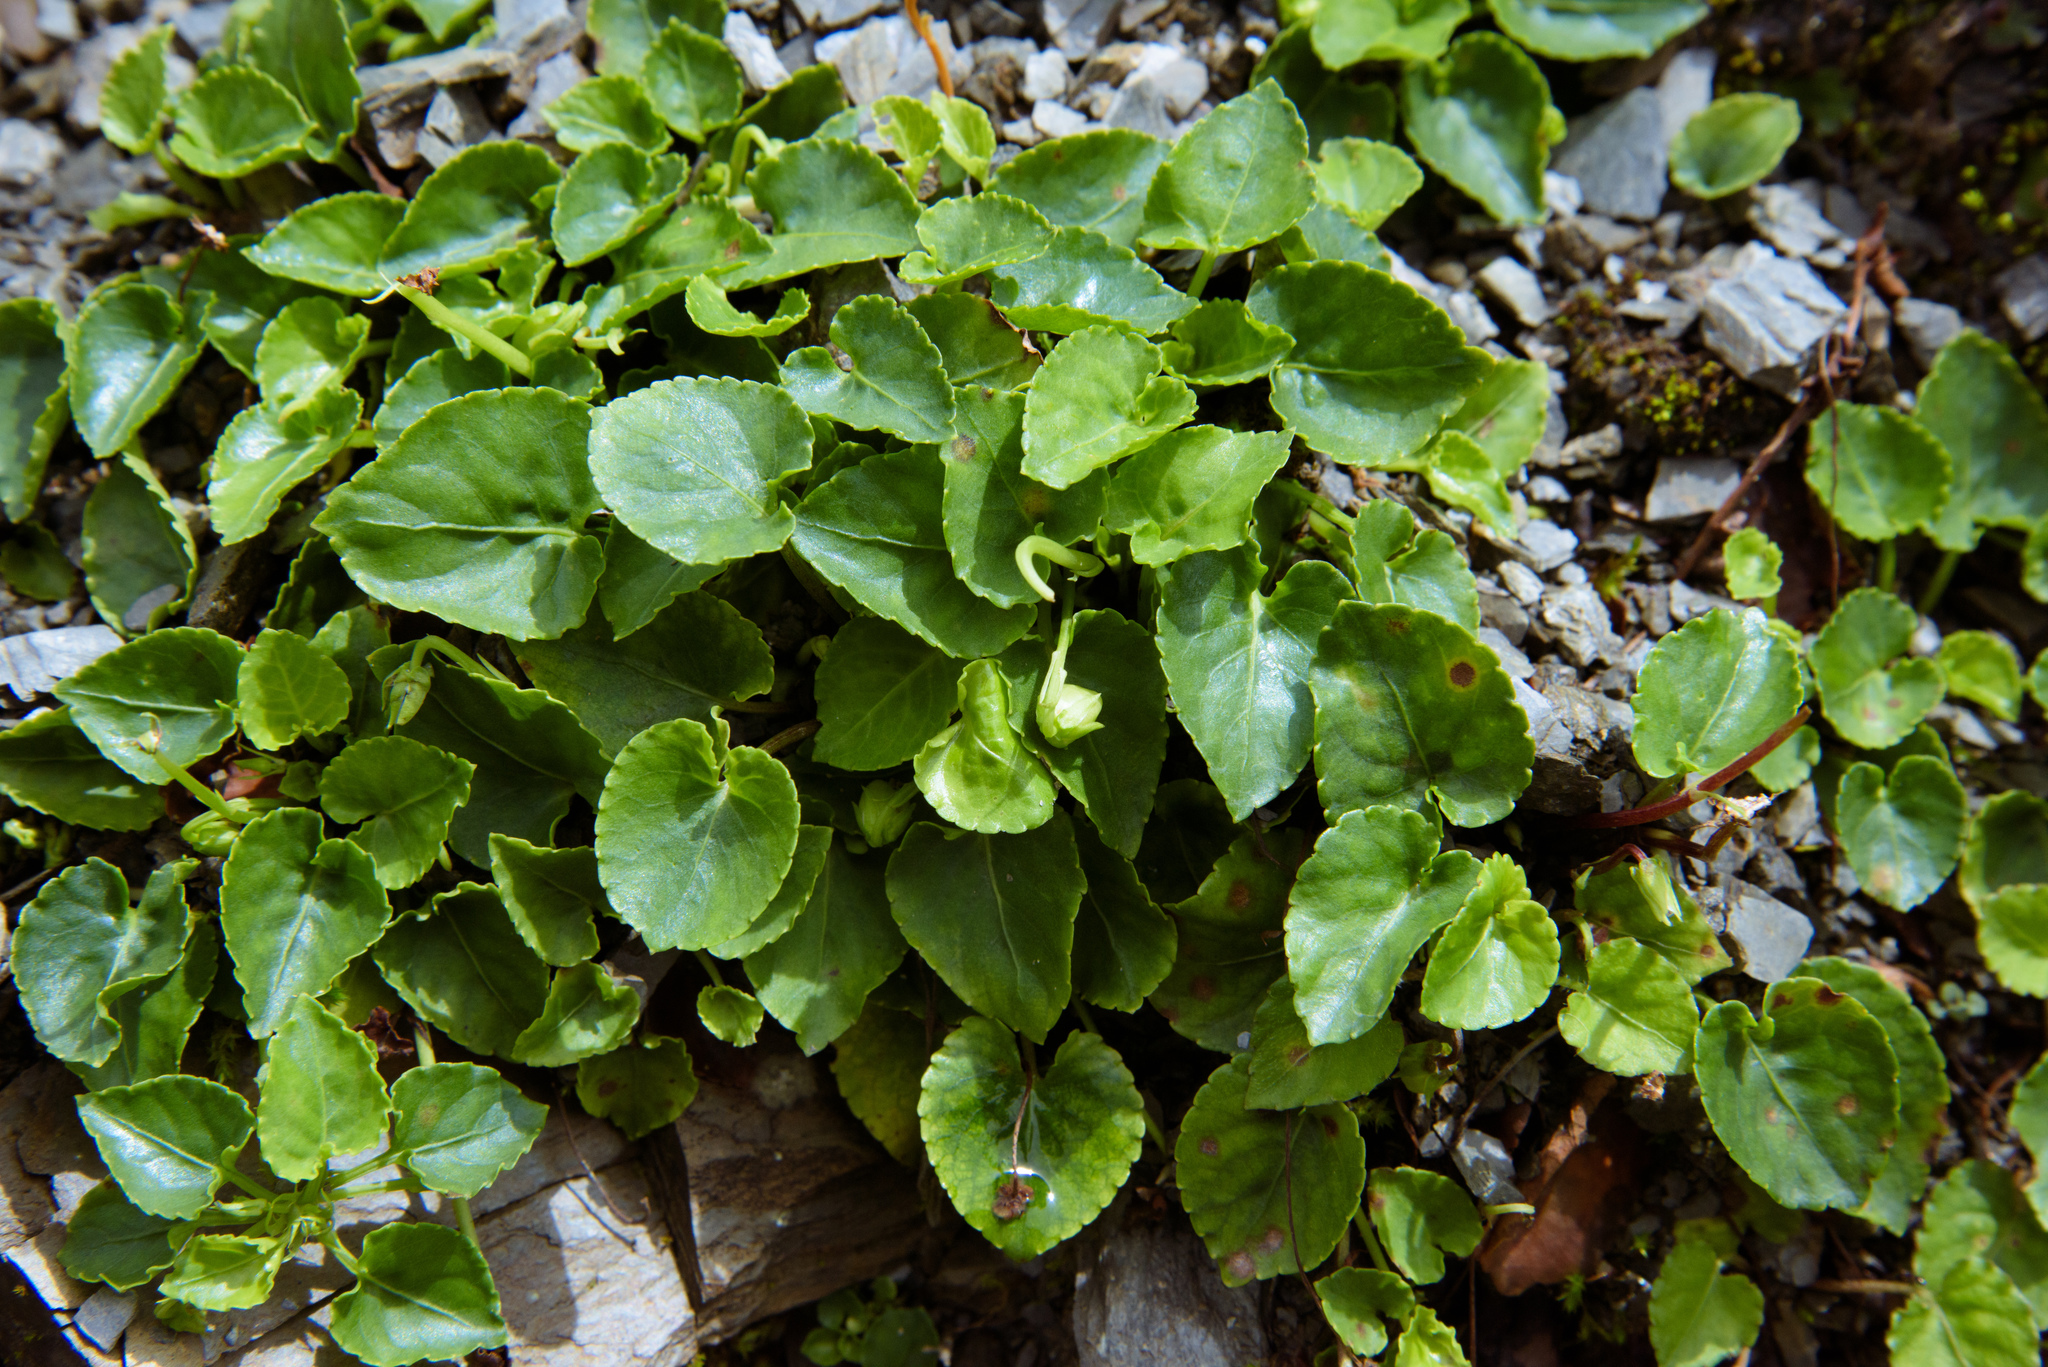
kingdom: Plantae
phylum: Tracheophyta
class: Magnoliopsida
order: Malpighiales
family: Violaceae
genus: Viola
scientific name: Viola fargesii
